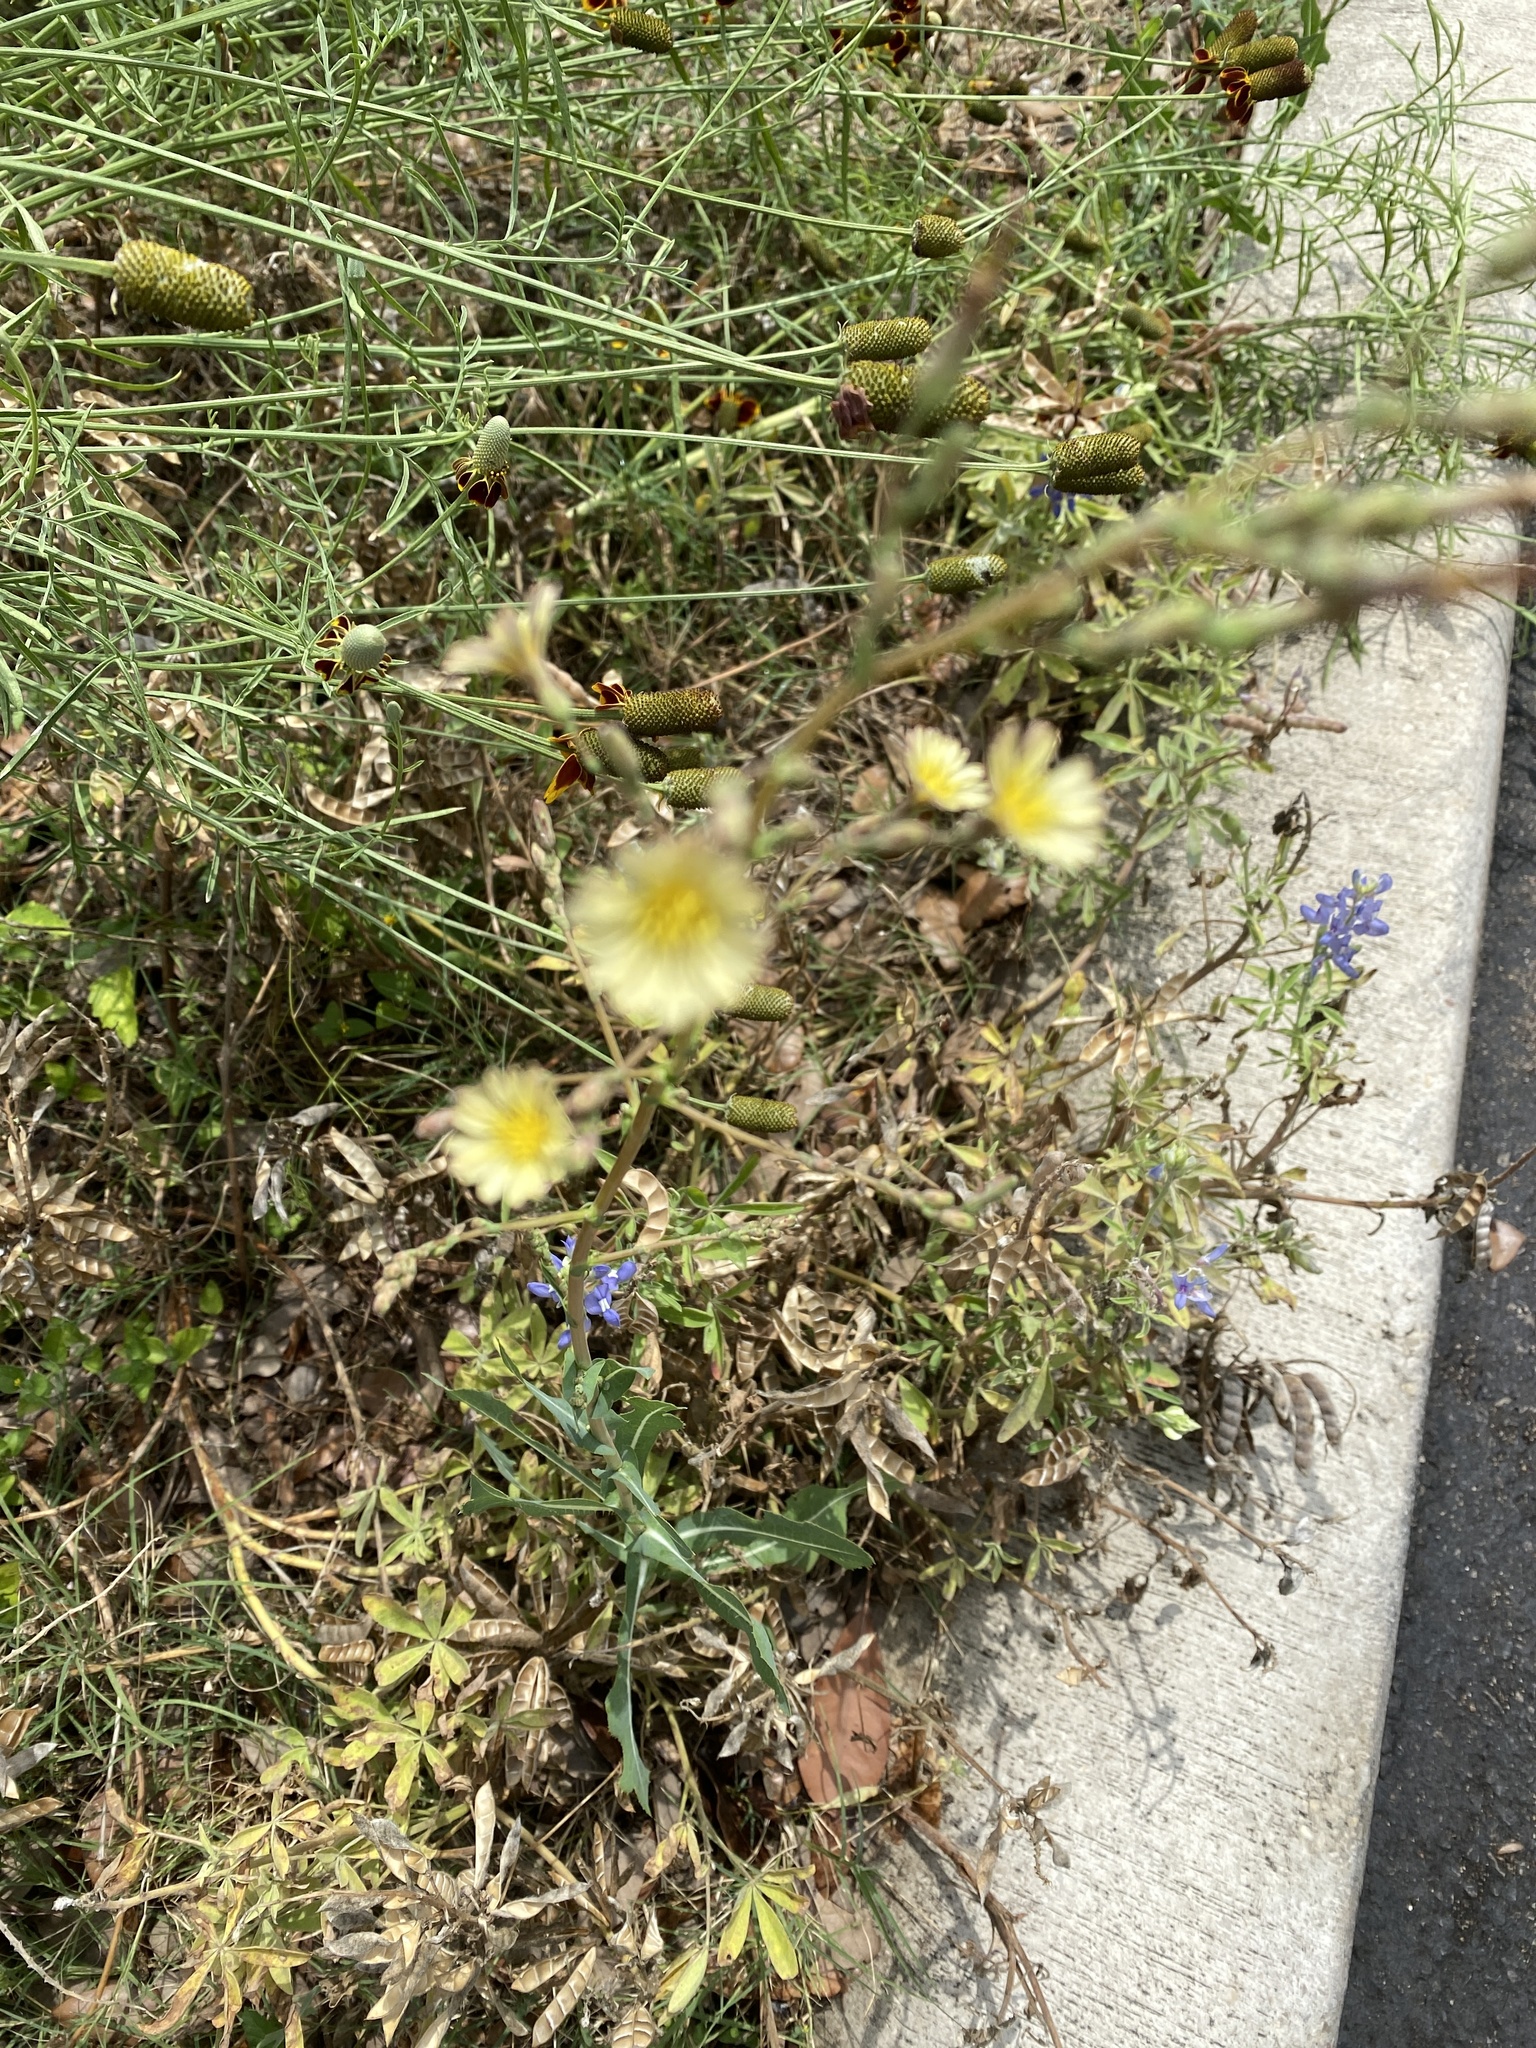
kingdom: Plantae
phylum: Tracheophyta
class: Magnoliopsida
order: Asterales
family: Asteraceae
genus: Lactuca
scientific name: Lactuca serriola
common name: Prickly lettuce
